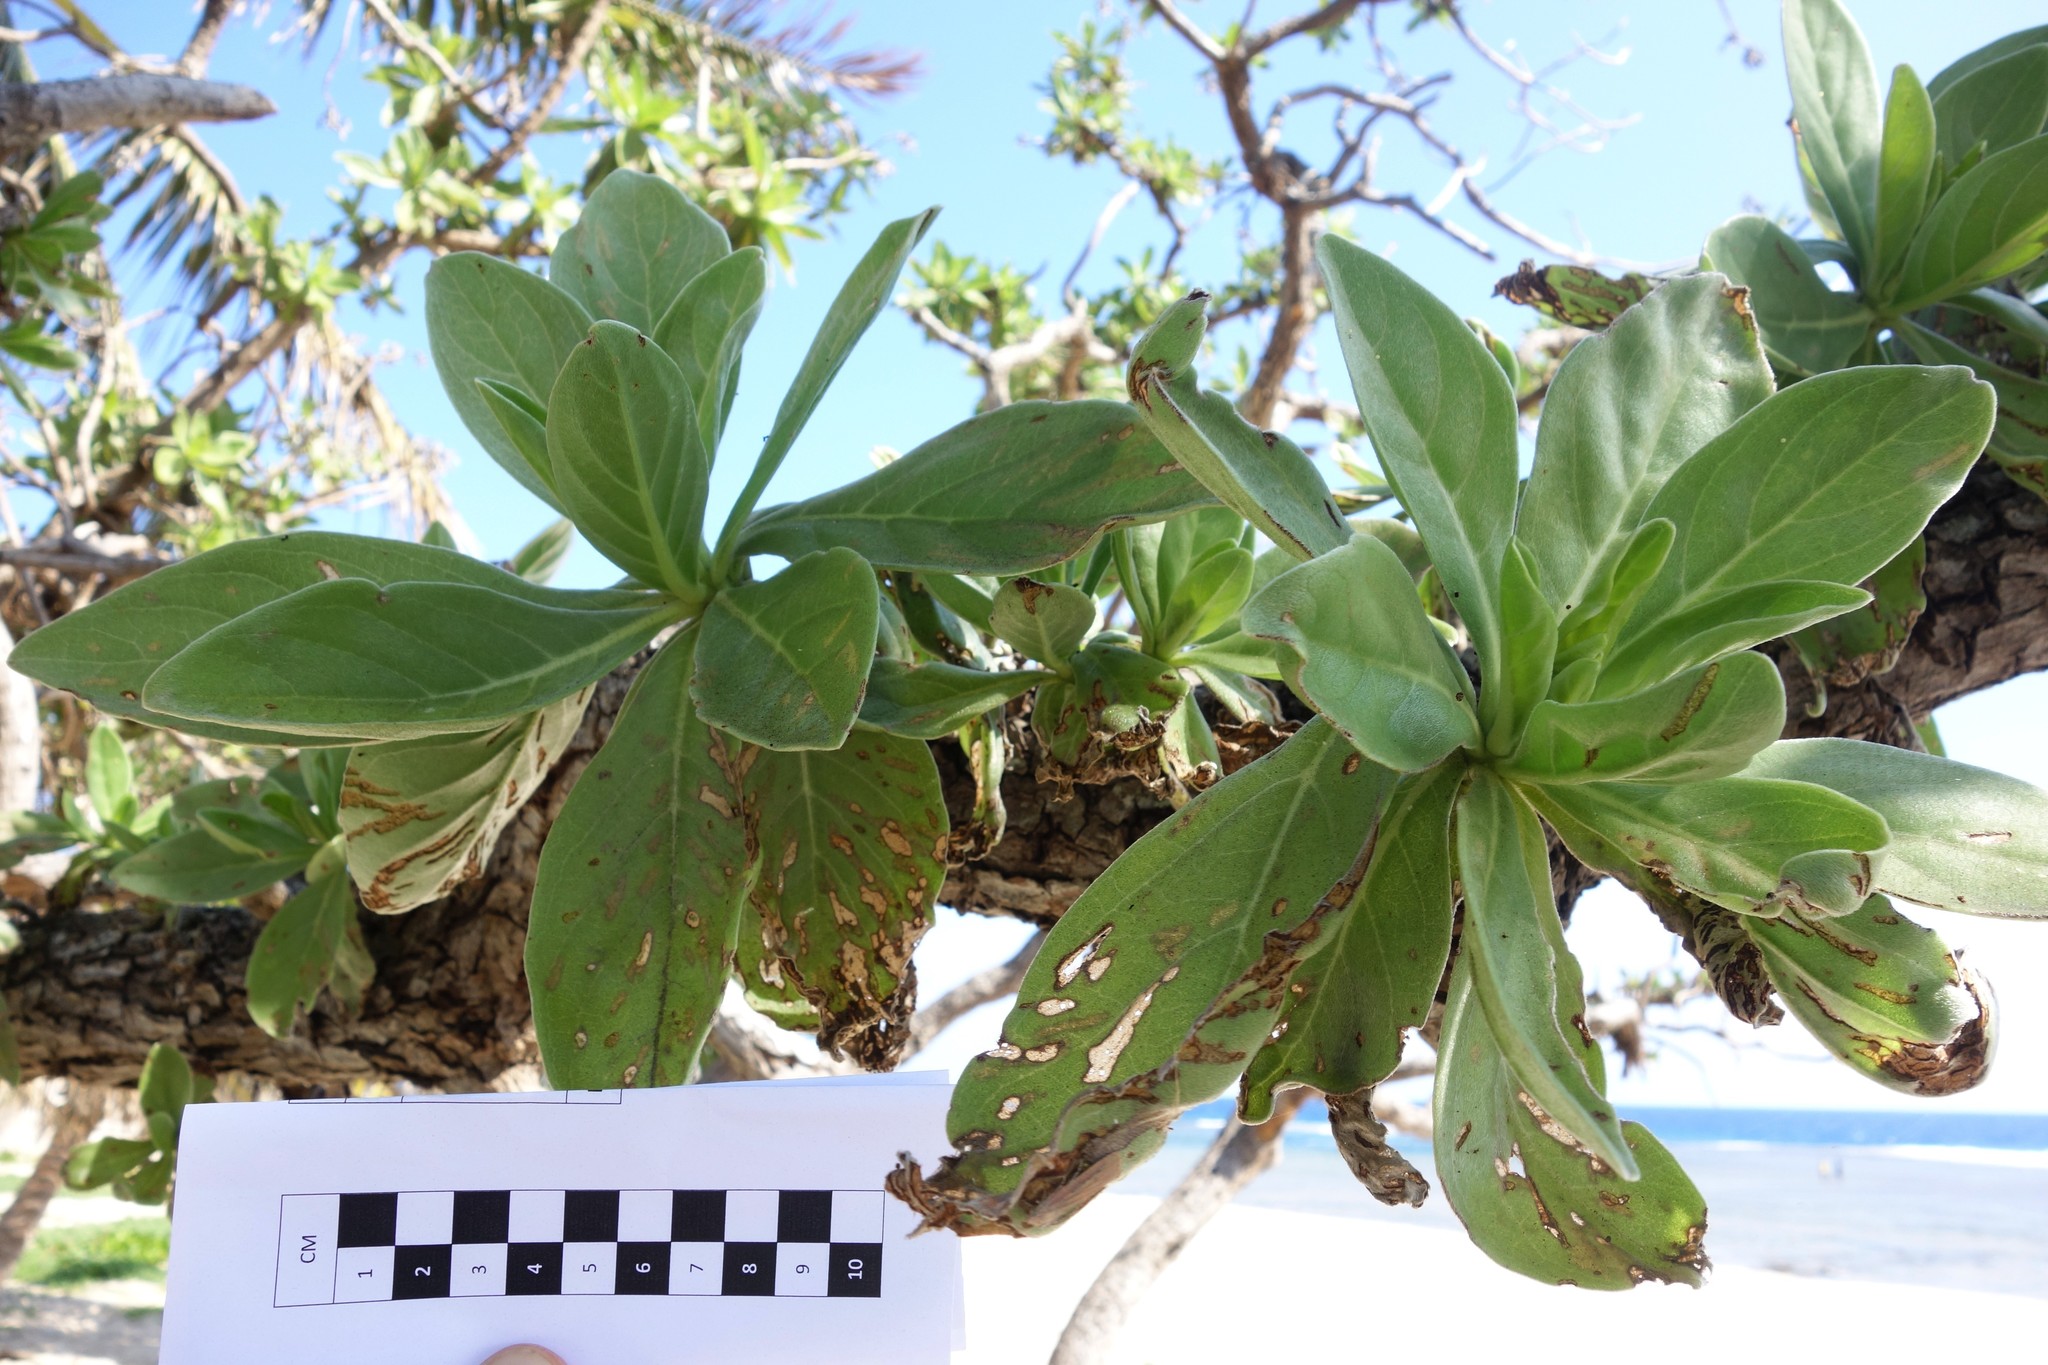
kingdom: Plantae
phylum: Tracheophyta
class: Magnoliopsida
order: Boraginales
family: Heliotropiaceae
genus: Heliotropium
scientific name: Heliotropium velutinum
